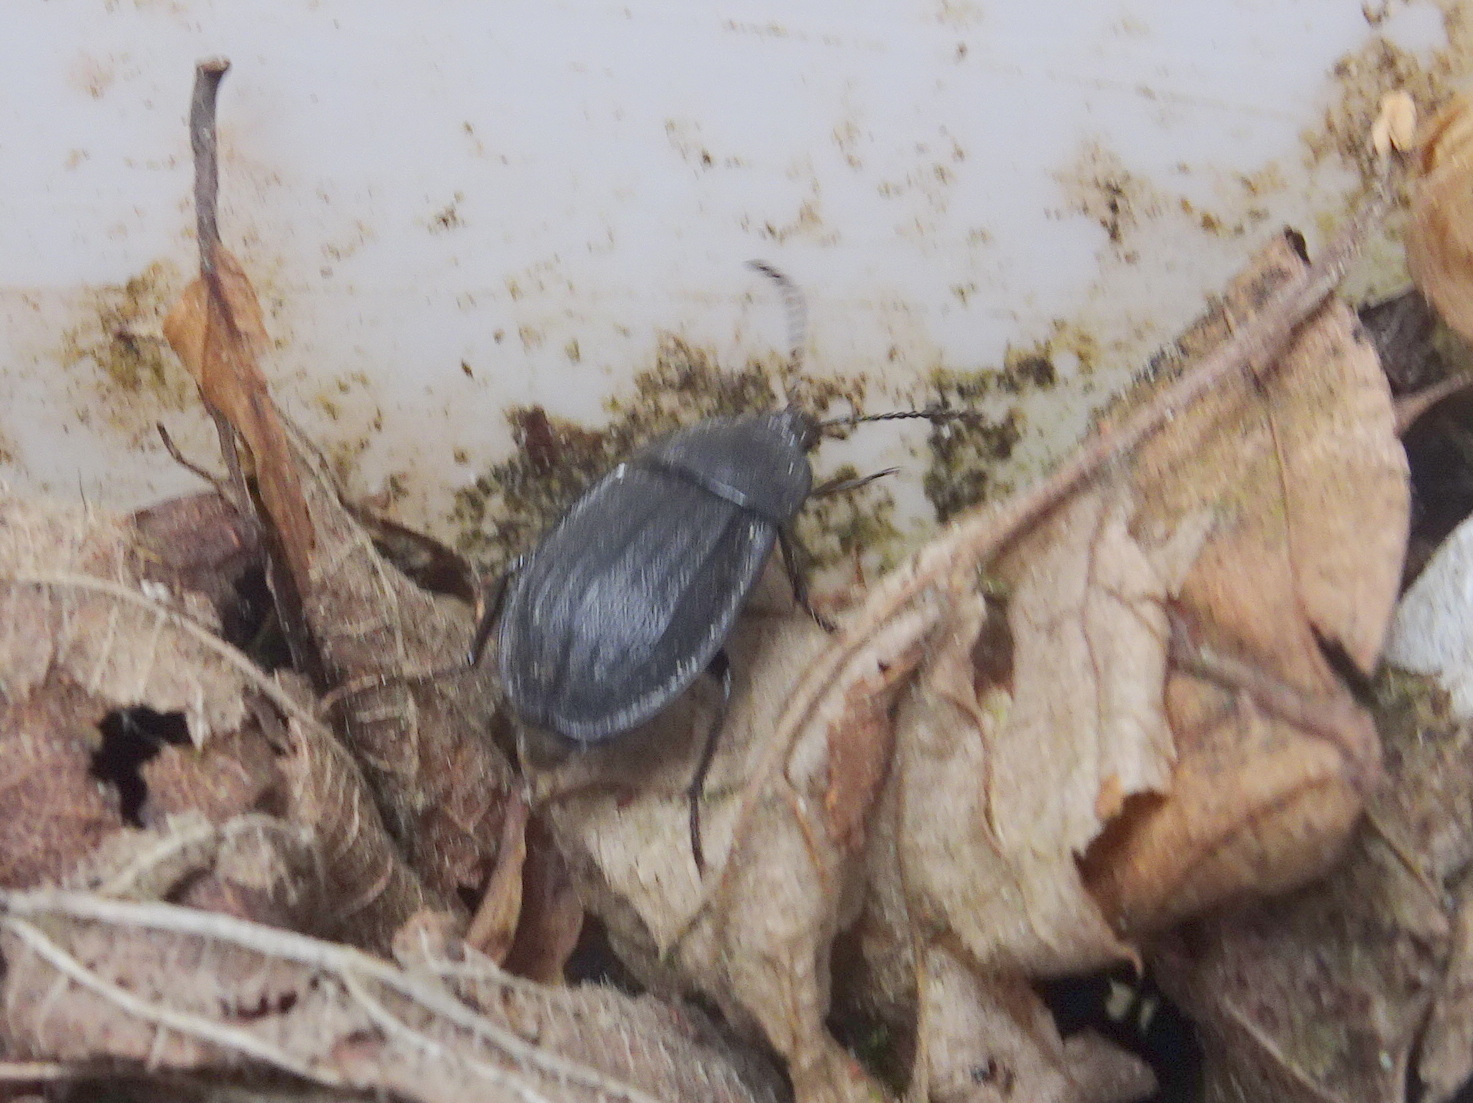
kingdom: Animalia
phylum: Arthropoda
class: Insecta
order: Coleoptera
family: Staphylinidae
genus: Silpha
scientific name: Silpha atrata
